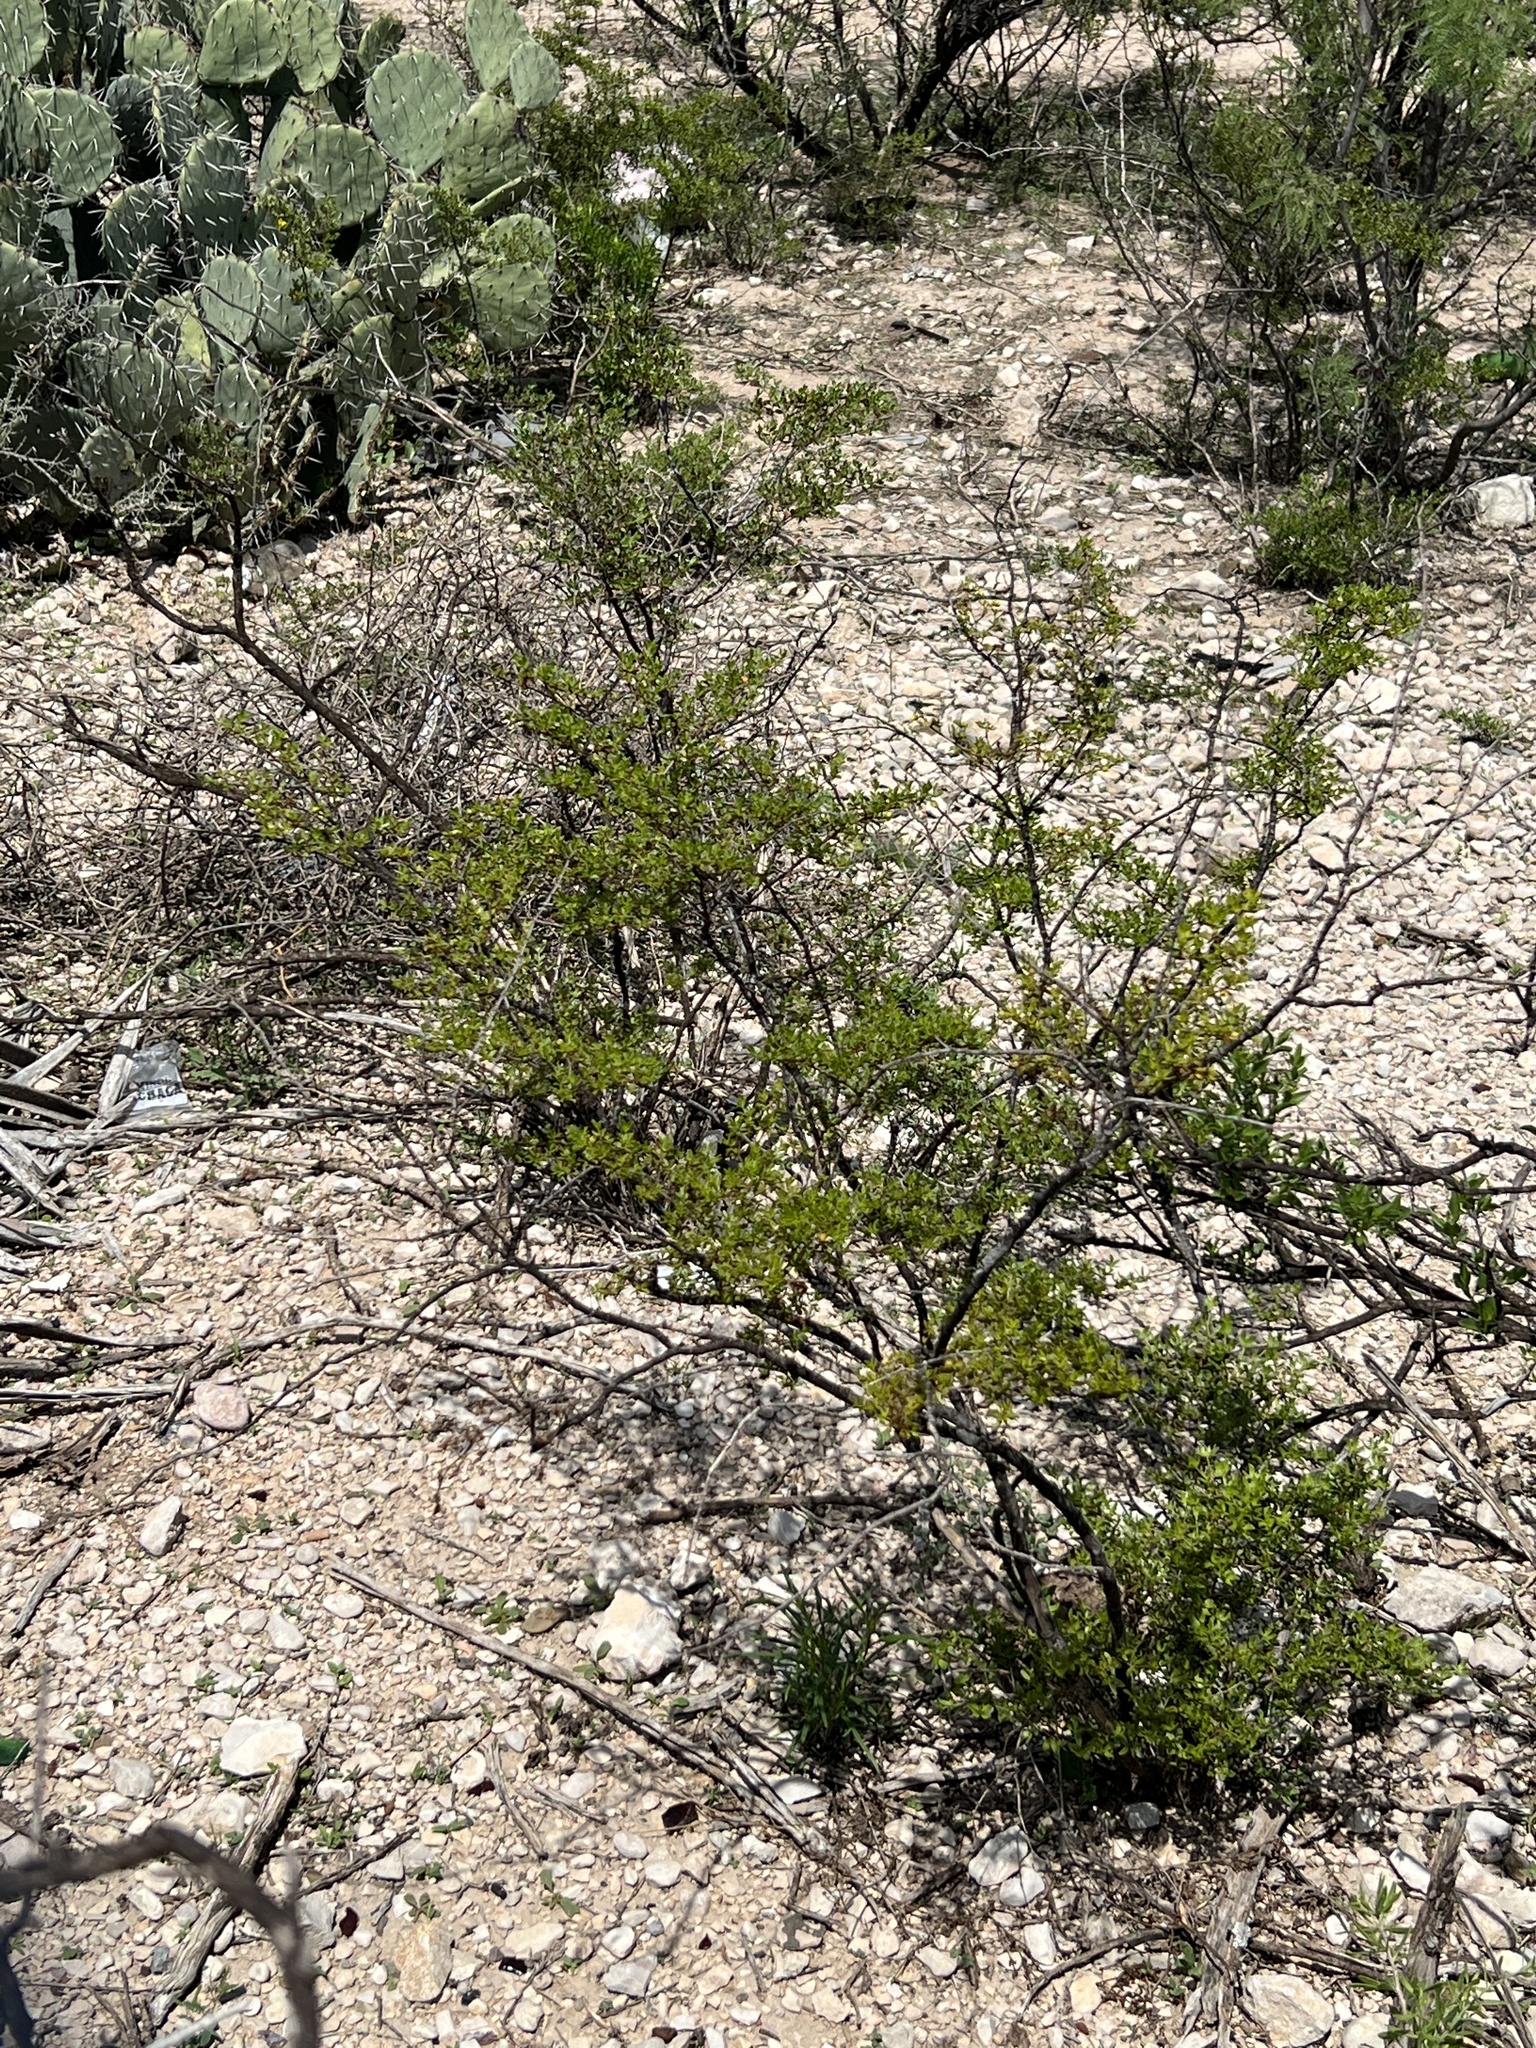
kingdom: Plantae
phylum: Tracheophyta
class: Magnoliopsida
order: Zygophyllales
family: Zygophyllaceae
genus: Larrea
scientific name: Larrea tridentata
